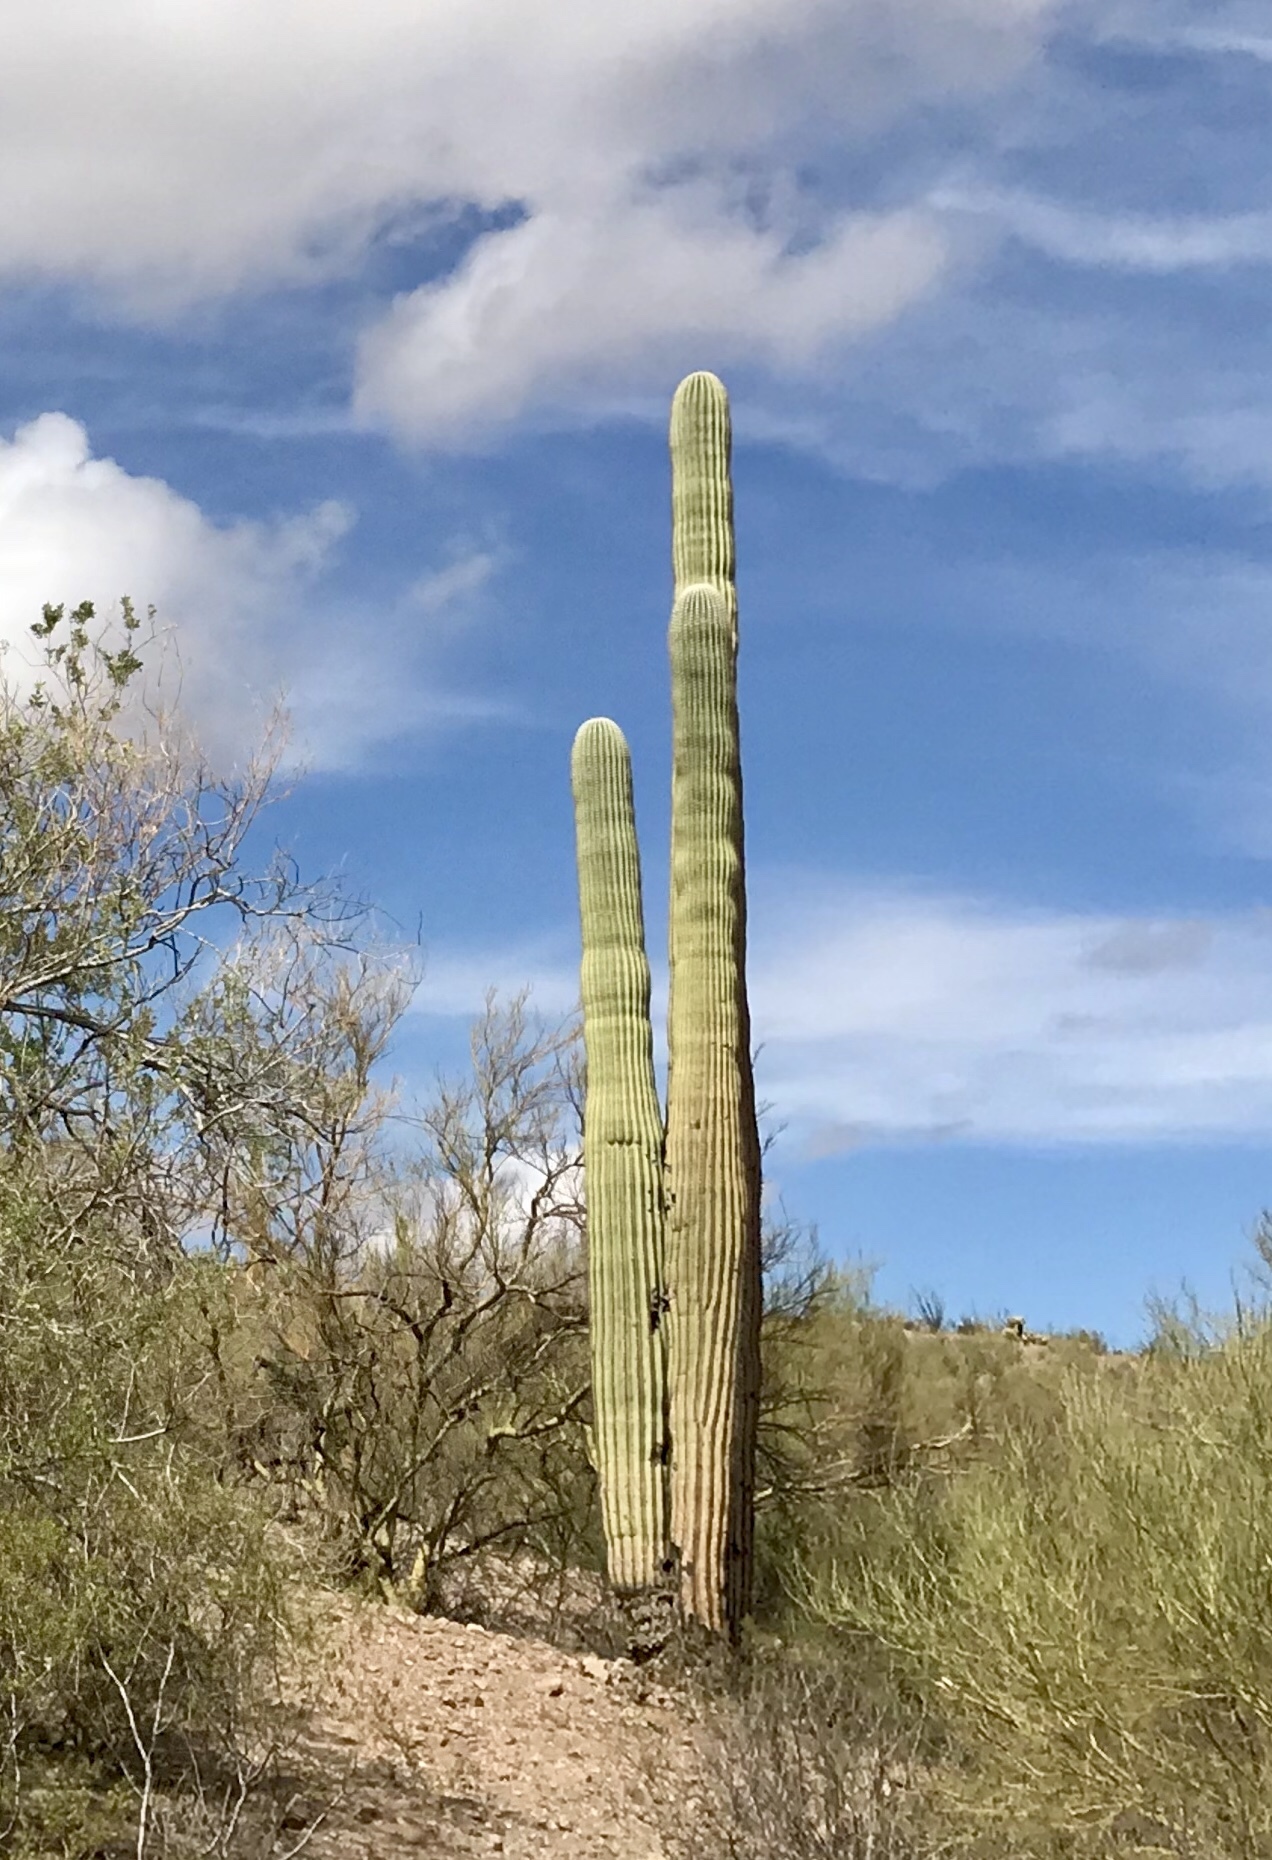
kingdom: Plantae
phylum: Tracheophyta
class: Magnoliopsida
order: Caryophyllales
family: Cactaceae
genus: Carnegiea
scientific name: Carnegiea gigantea
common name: Saguaro
